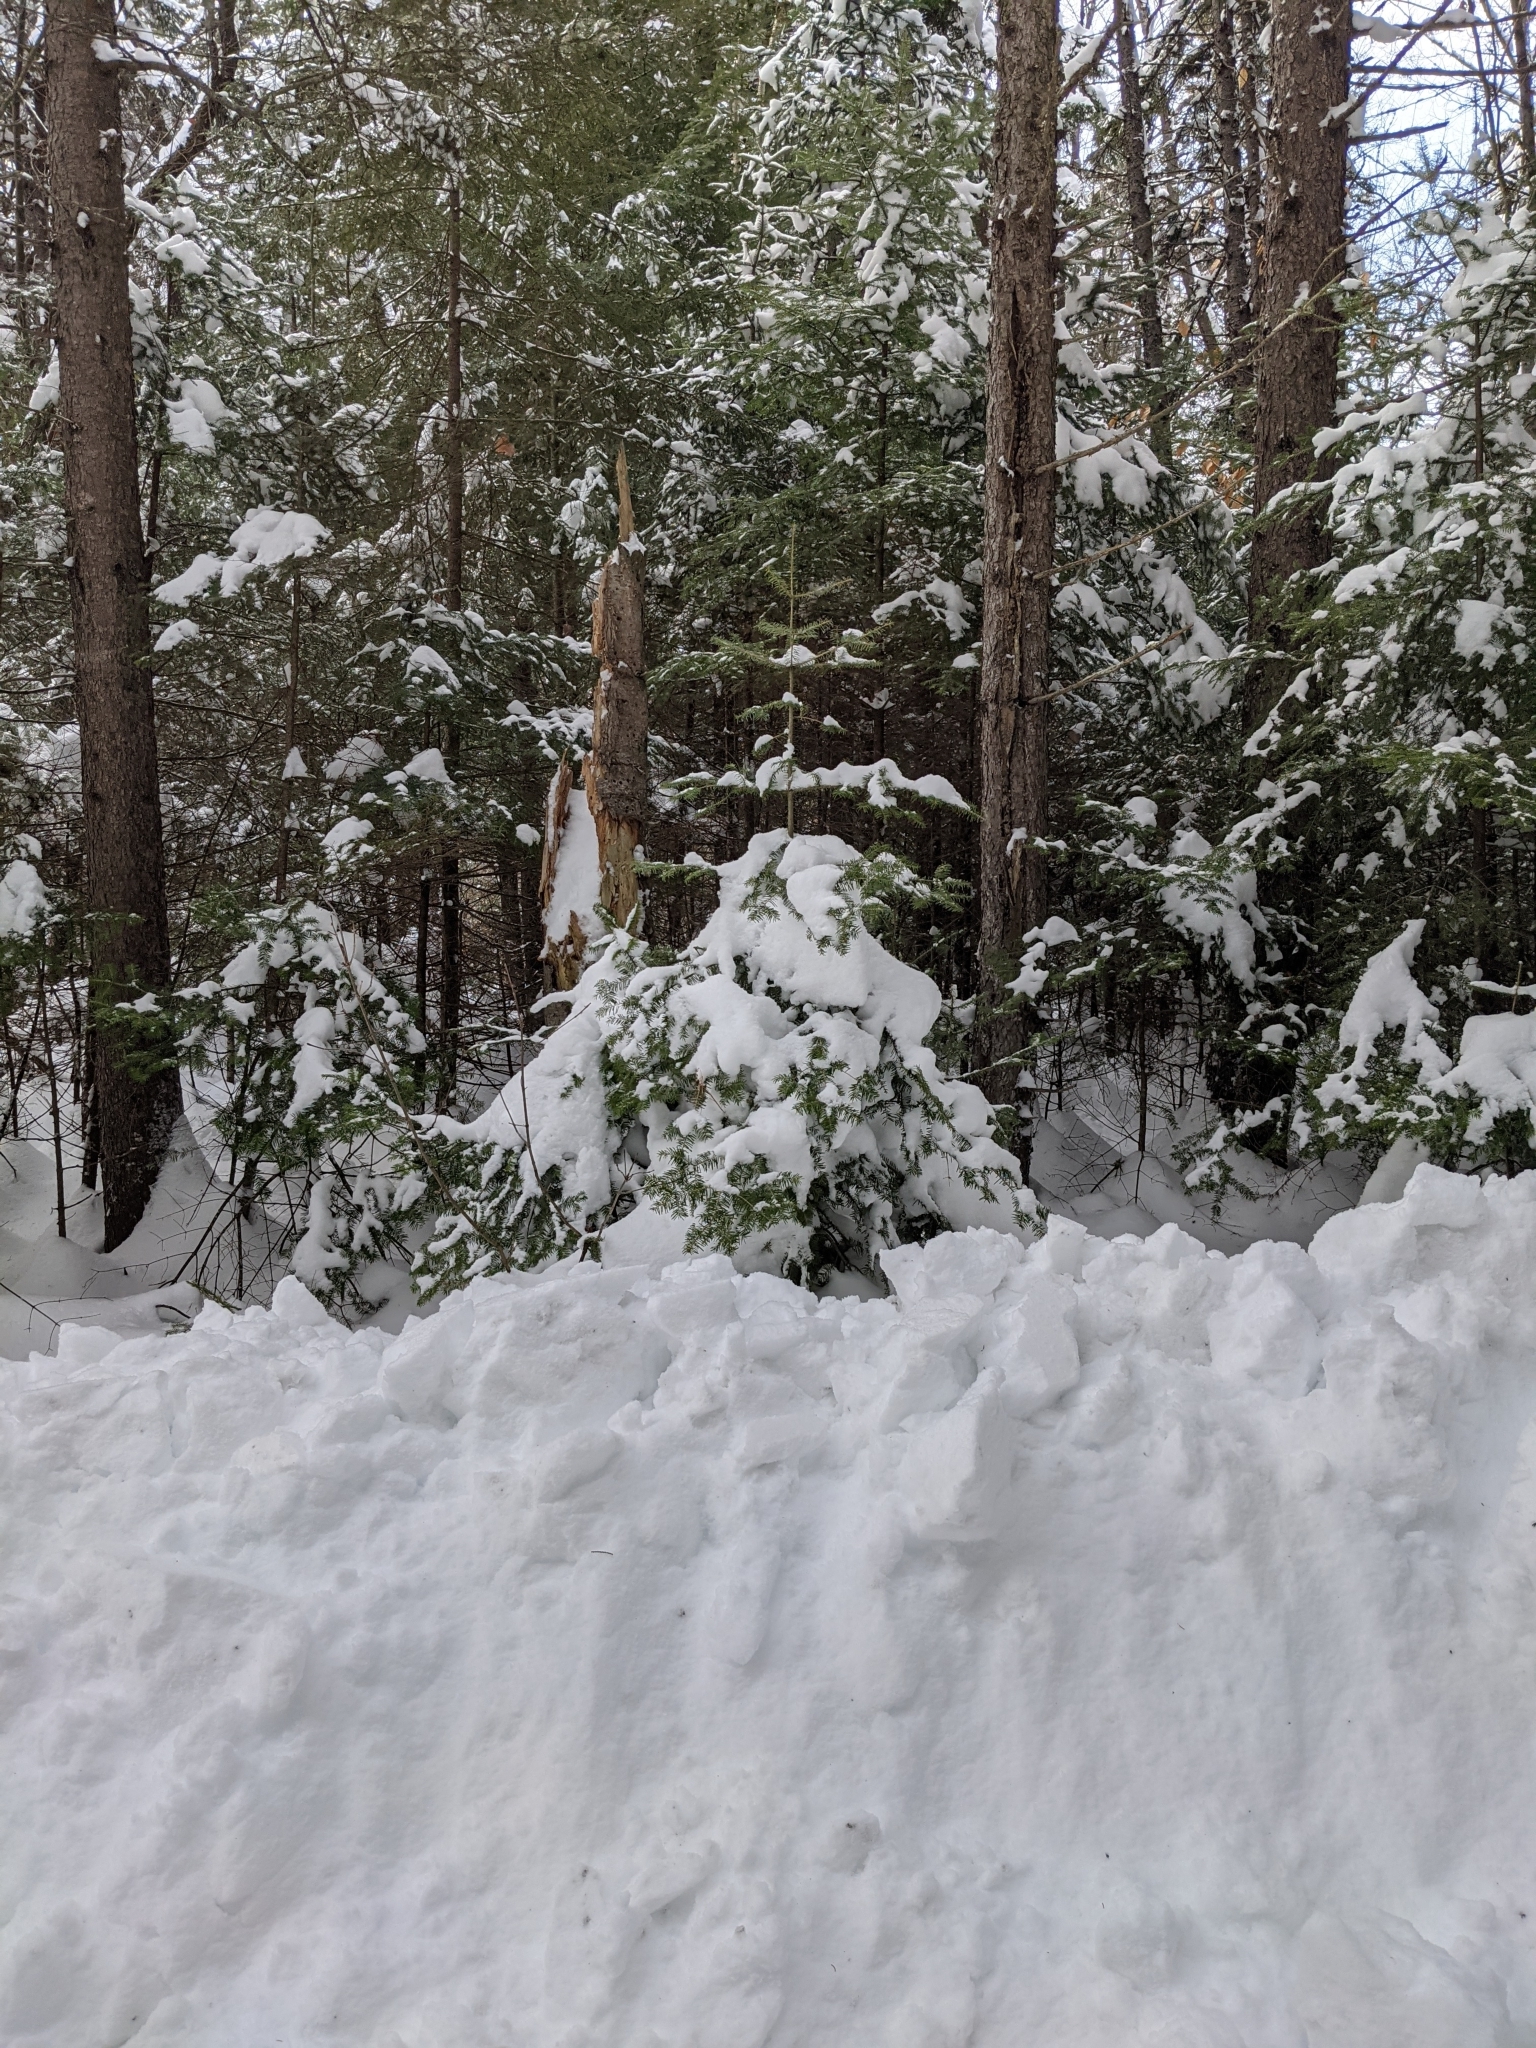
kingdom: Plantae
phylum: Tracheophyta
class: Pinopsida
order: Pinales
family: Pinaceae
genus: Abies
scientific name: Abies balsamea
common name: Balsam fir
